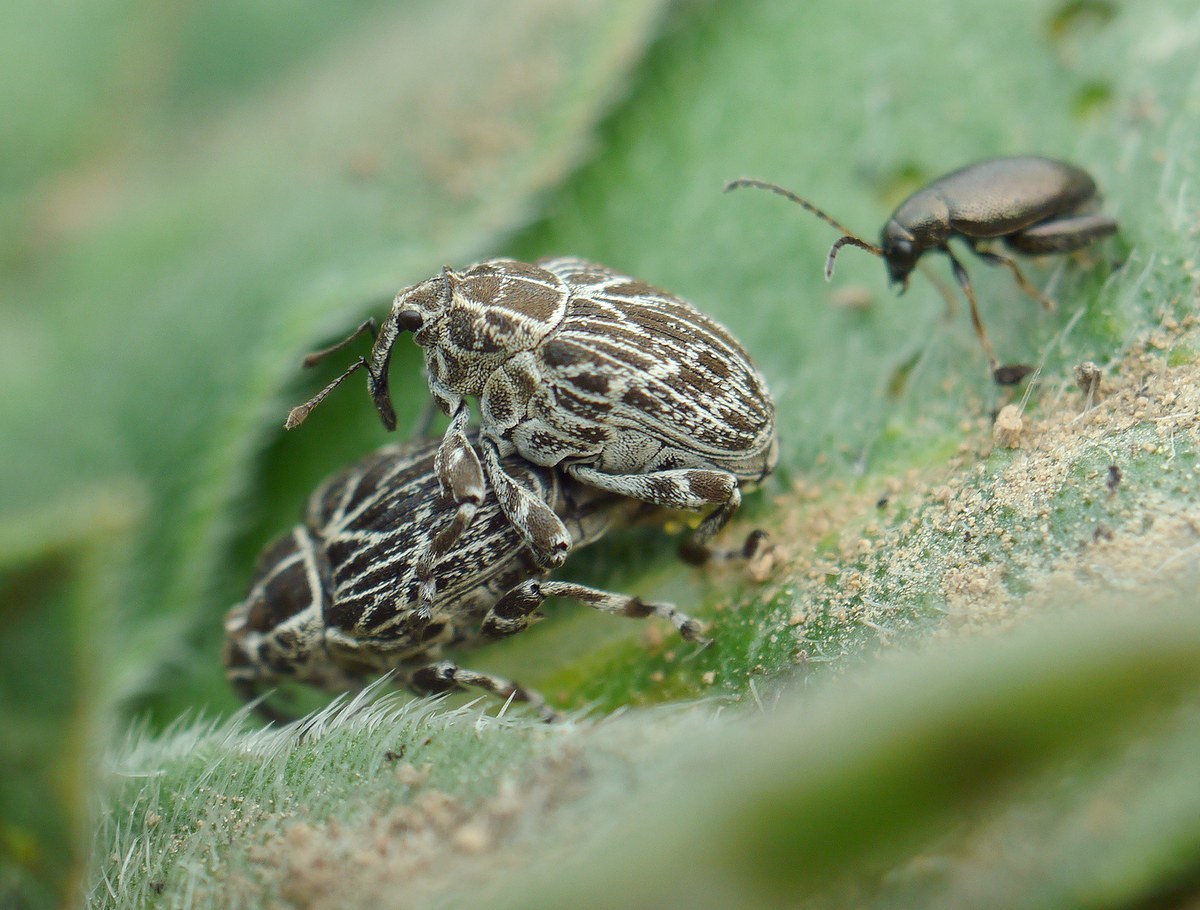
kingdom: Animalia
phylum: Arthropoda
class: Insecta
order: Coleoptera
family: Curculionidae
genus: Mogulones
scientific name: Mogulones geographicus
